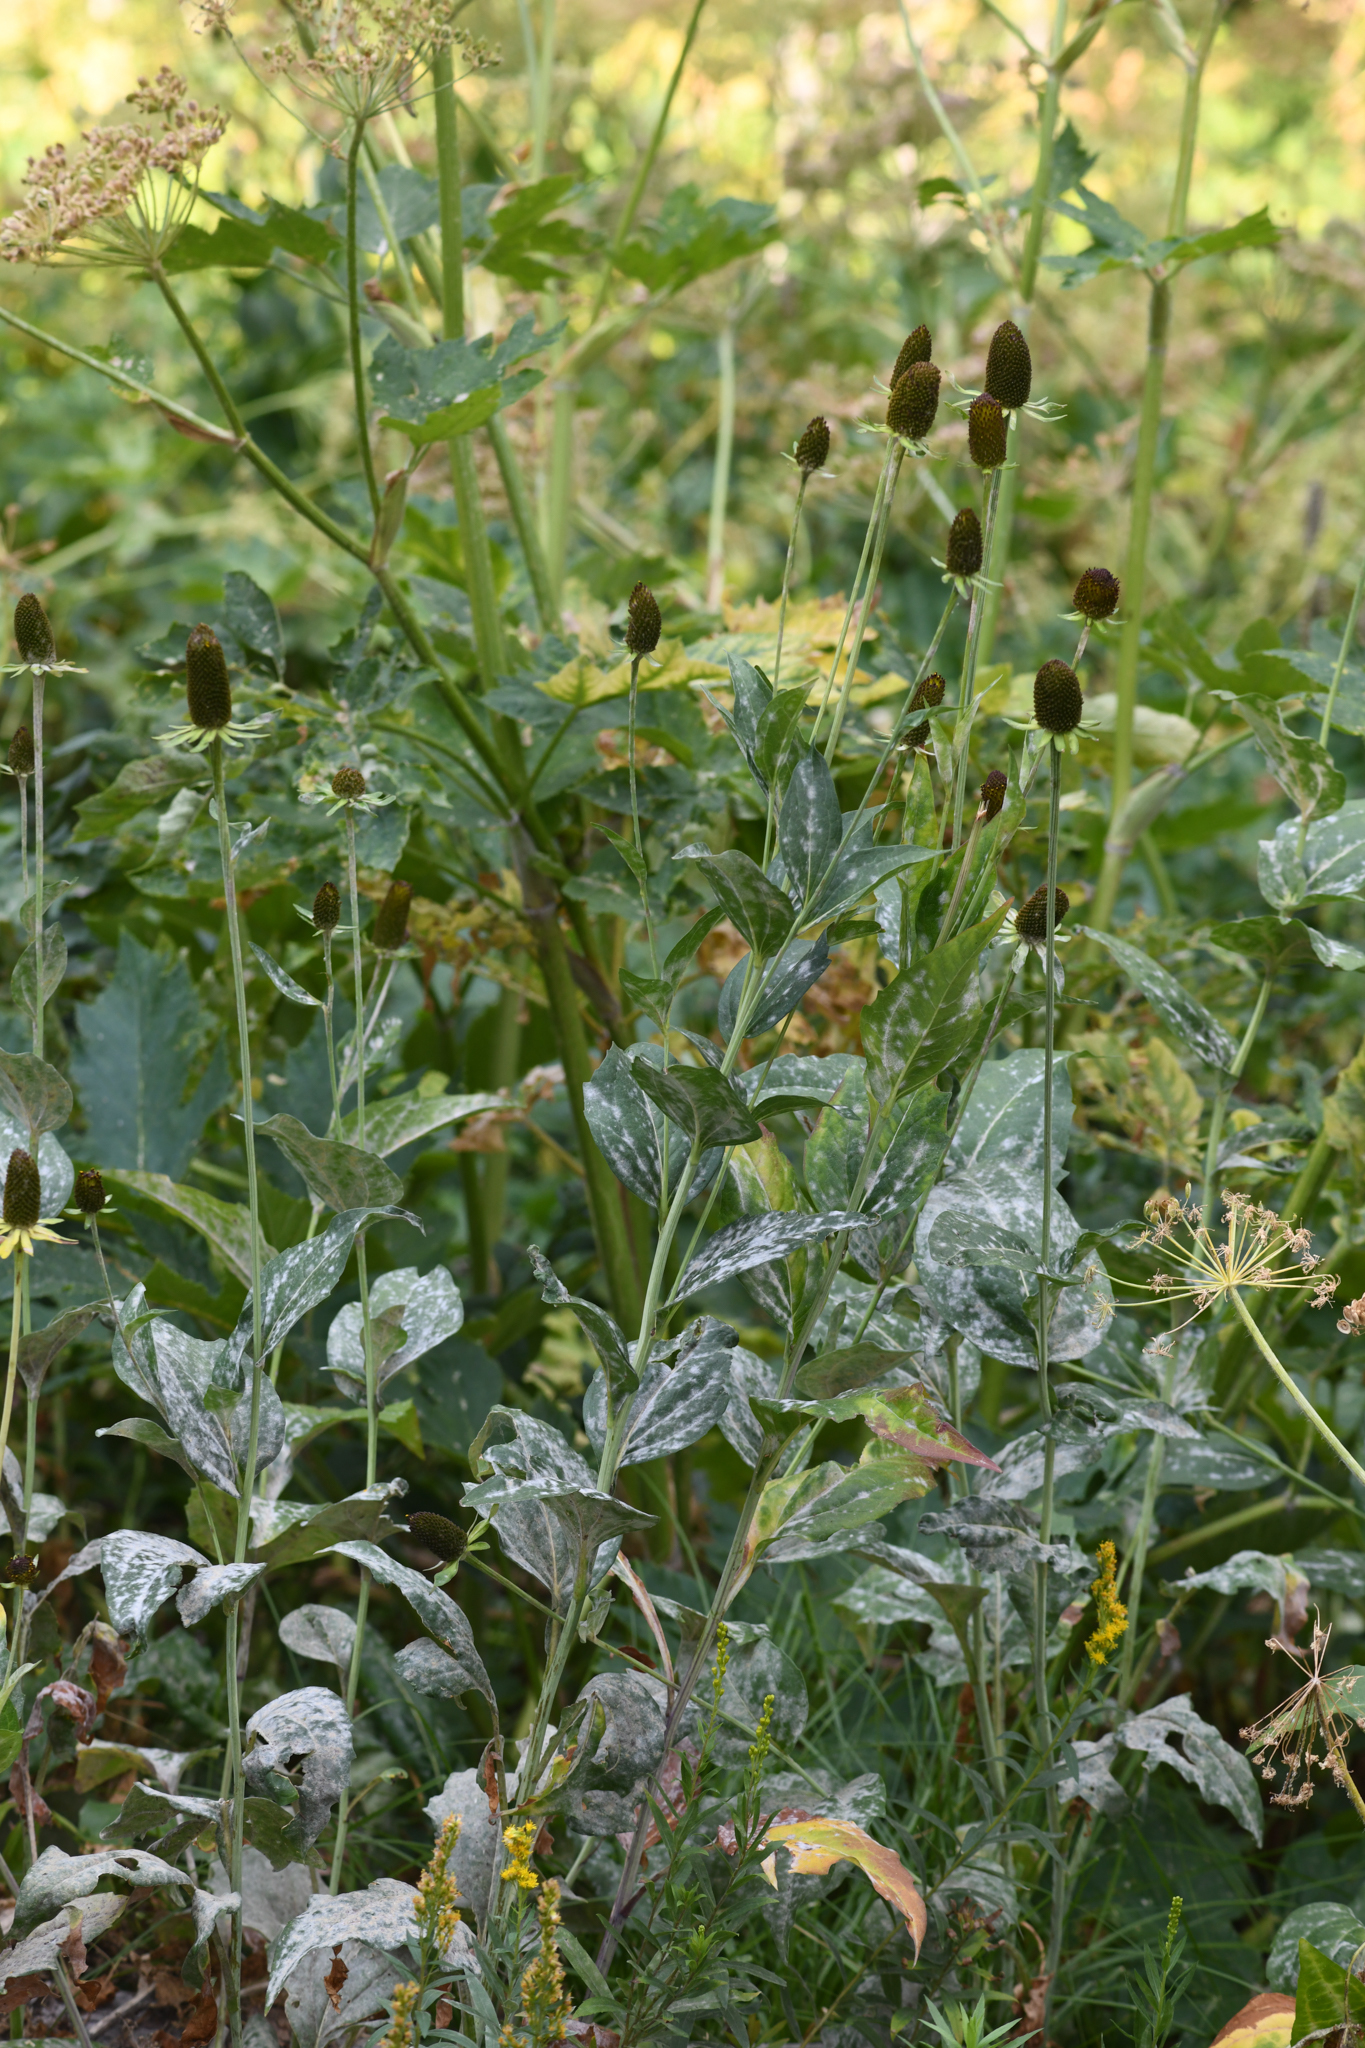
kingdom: Plantae
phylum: Tracheophyta
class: Magnoliopsida
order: Asterales
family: Asteraceae
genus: Rudbeckia
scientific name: Rudbeckia occidentalis
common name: Western coneflower
